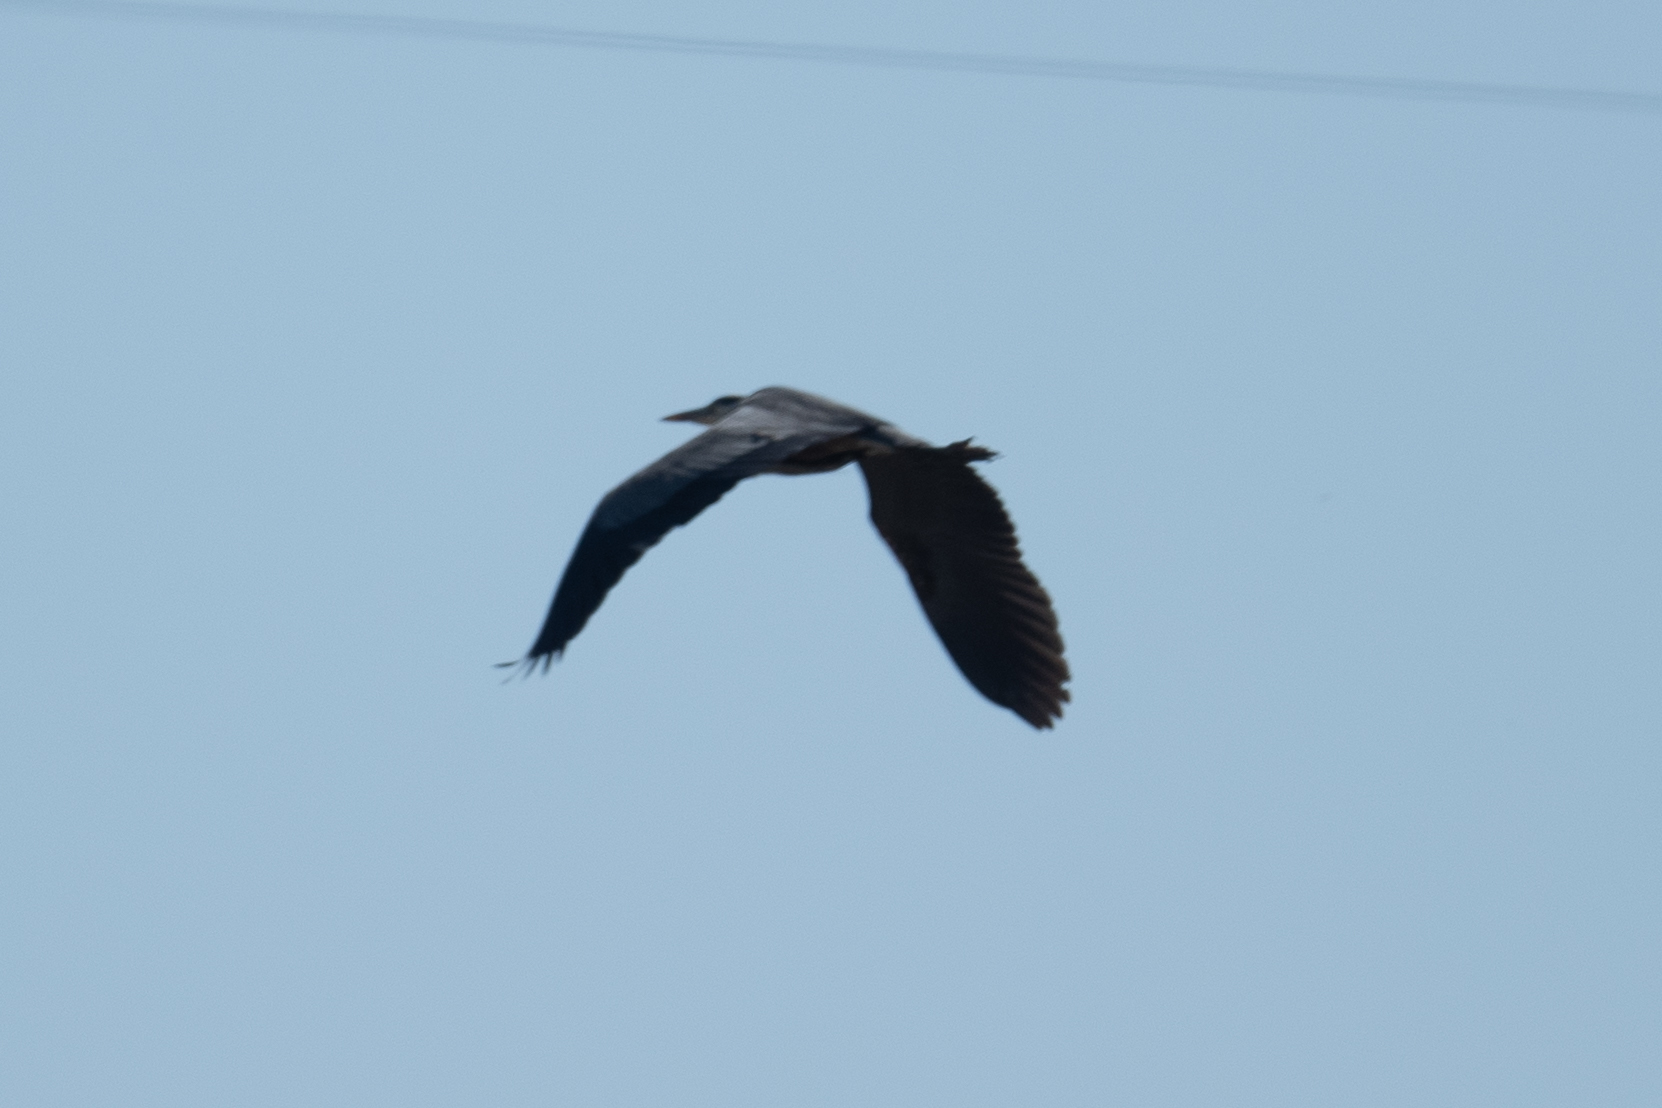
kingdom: Animalia
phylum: Chordata
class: Aves
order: Pelecaniformes
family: Ardeidae
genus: Ardea
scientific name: Ardea herodias
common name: Great blue heron
